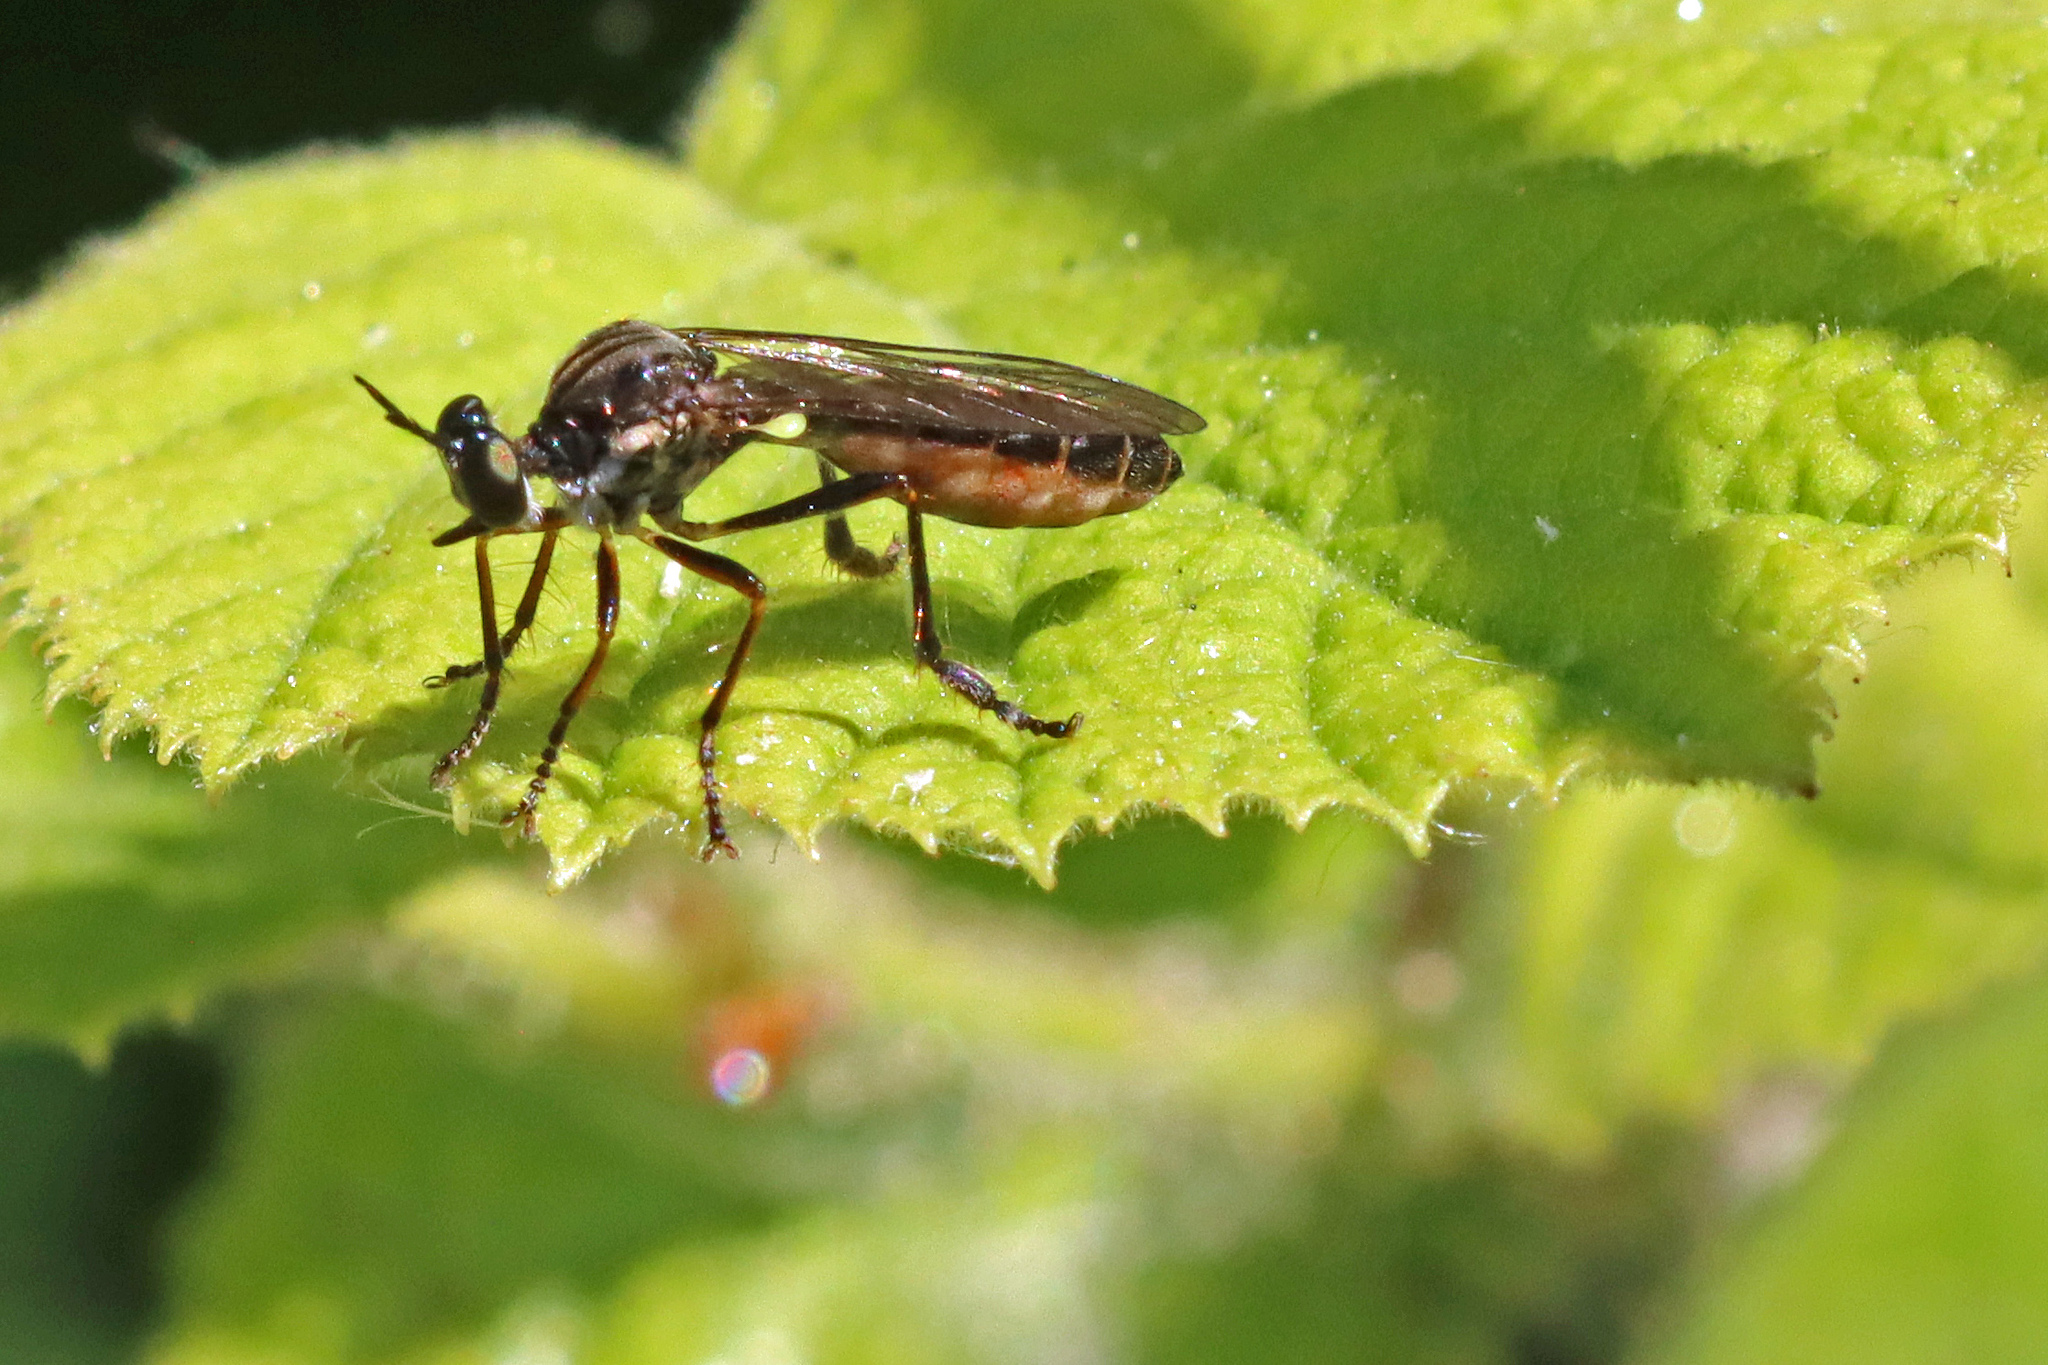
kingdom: Animalia
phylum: Arthropoda
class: Insecta
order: Diptera
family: Asilidae
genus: Dioctria
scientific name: Dioctria hyalipennis
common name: Stripe-legged robberfly
